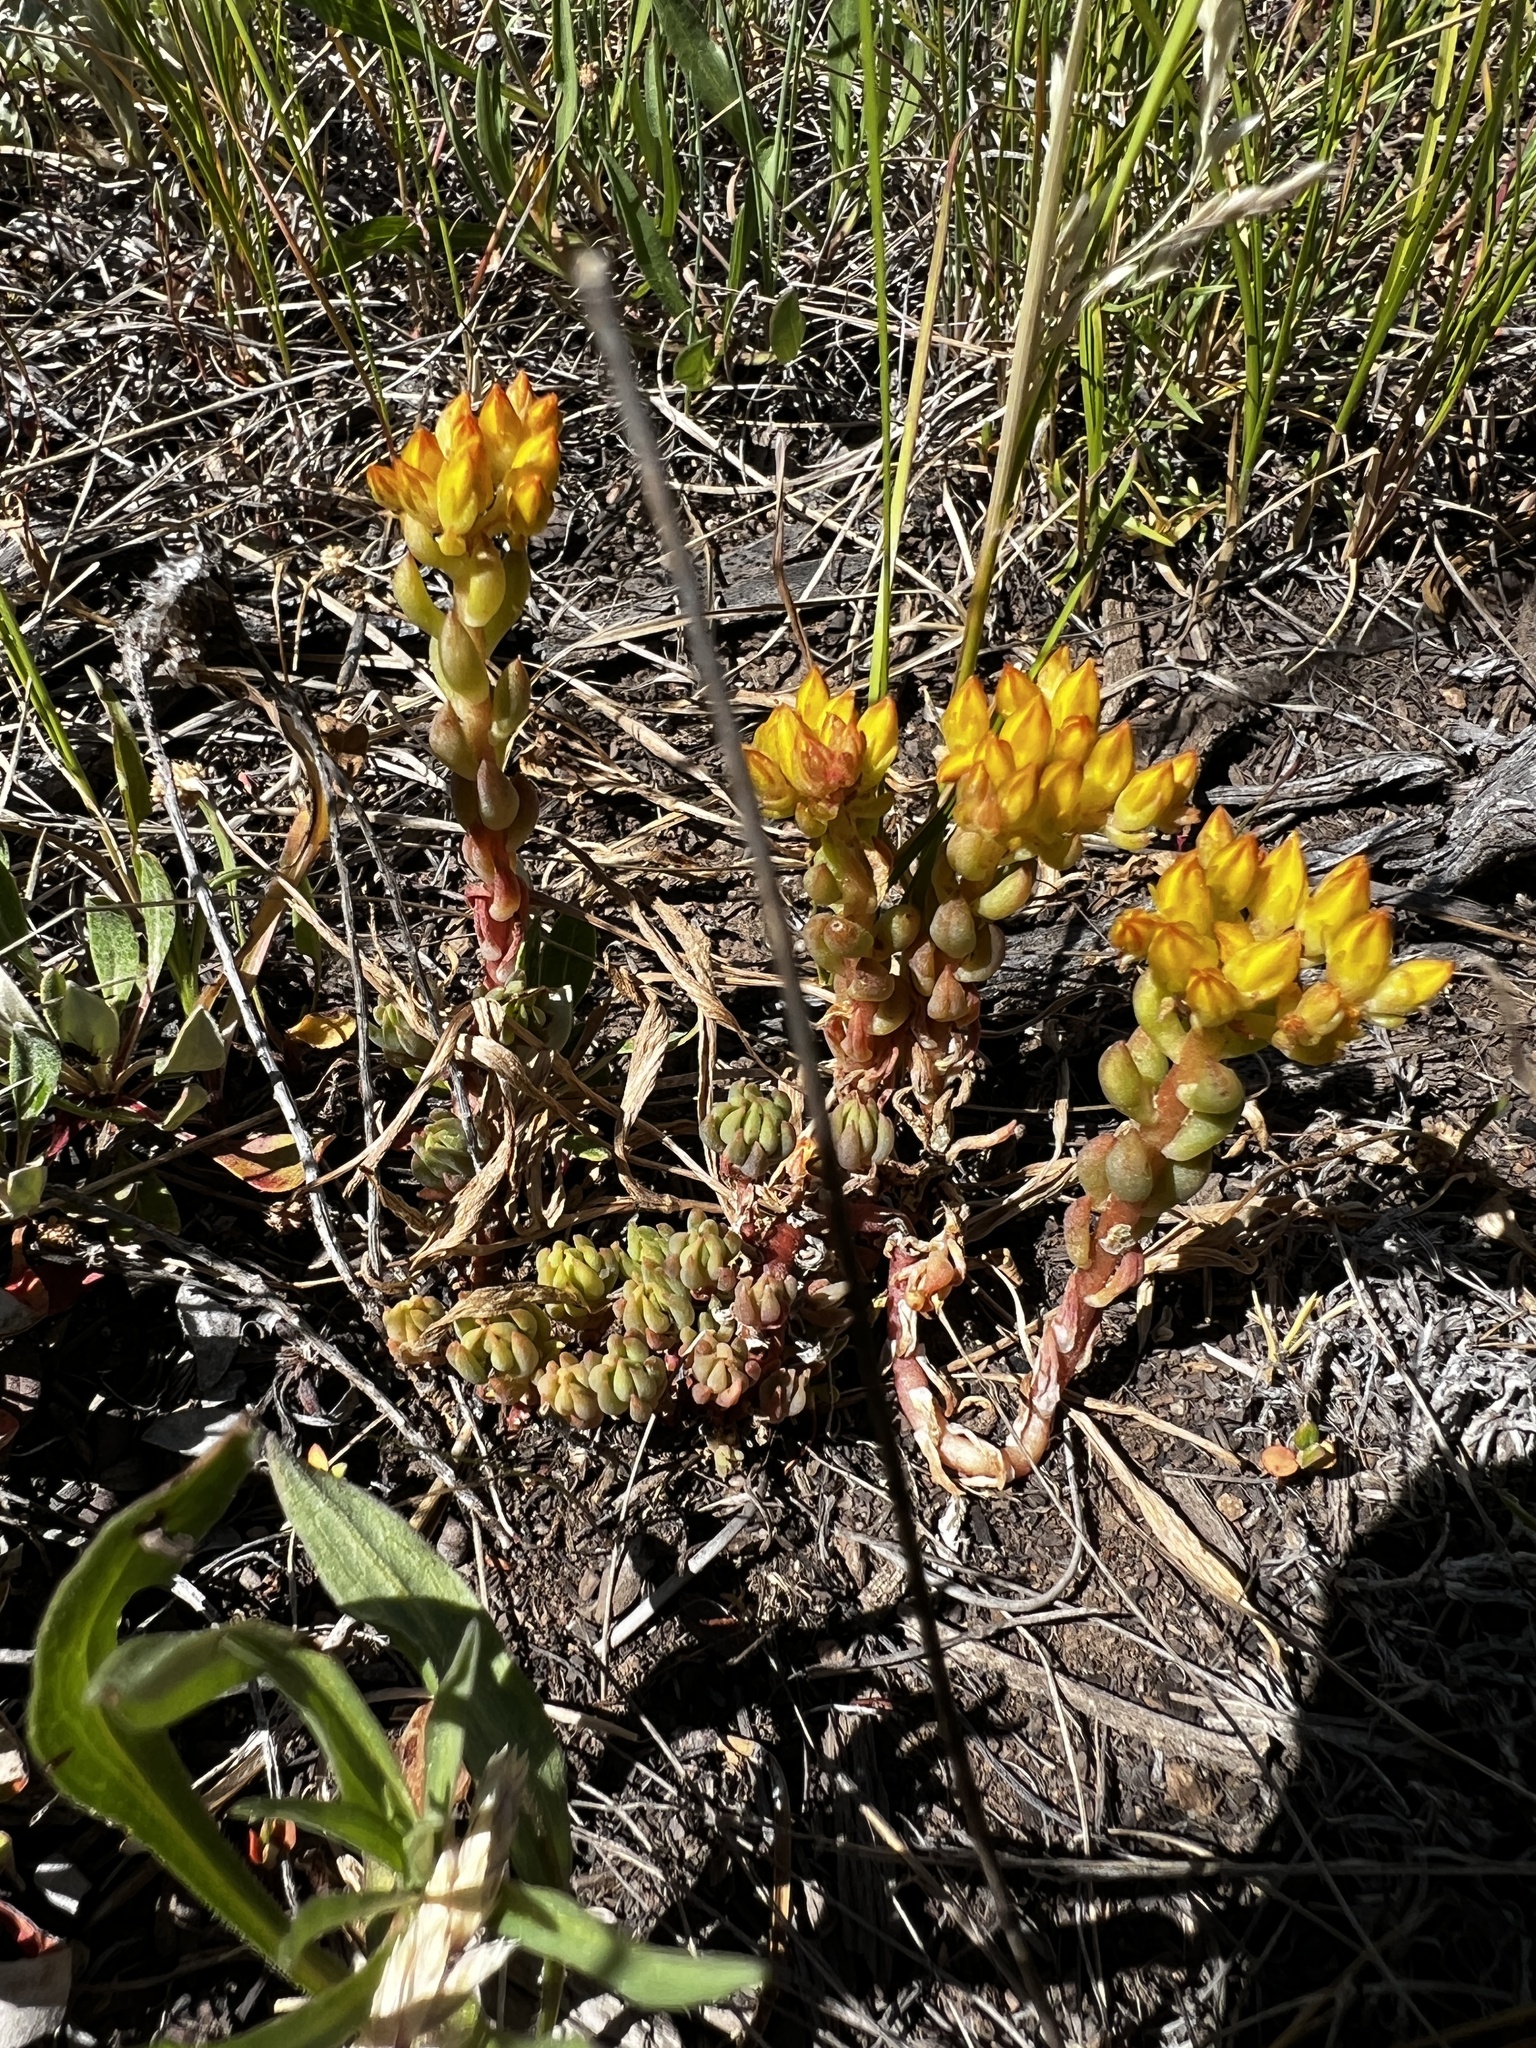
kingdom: Plantae
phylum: Tracheophyta
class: Magnoliopsida
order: Saxifragales
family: Crassulaceae
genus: Sedum
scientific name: Sedum lanceolatum
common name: Common stonecrop
